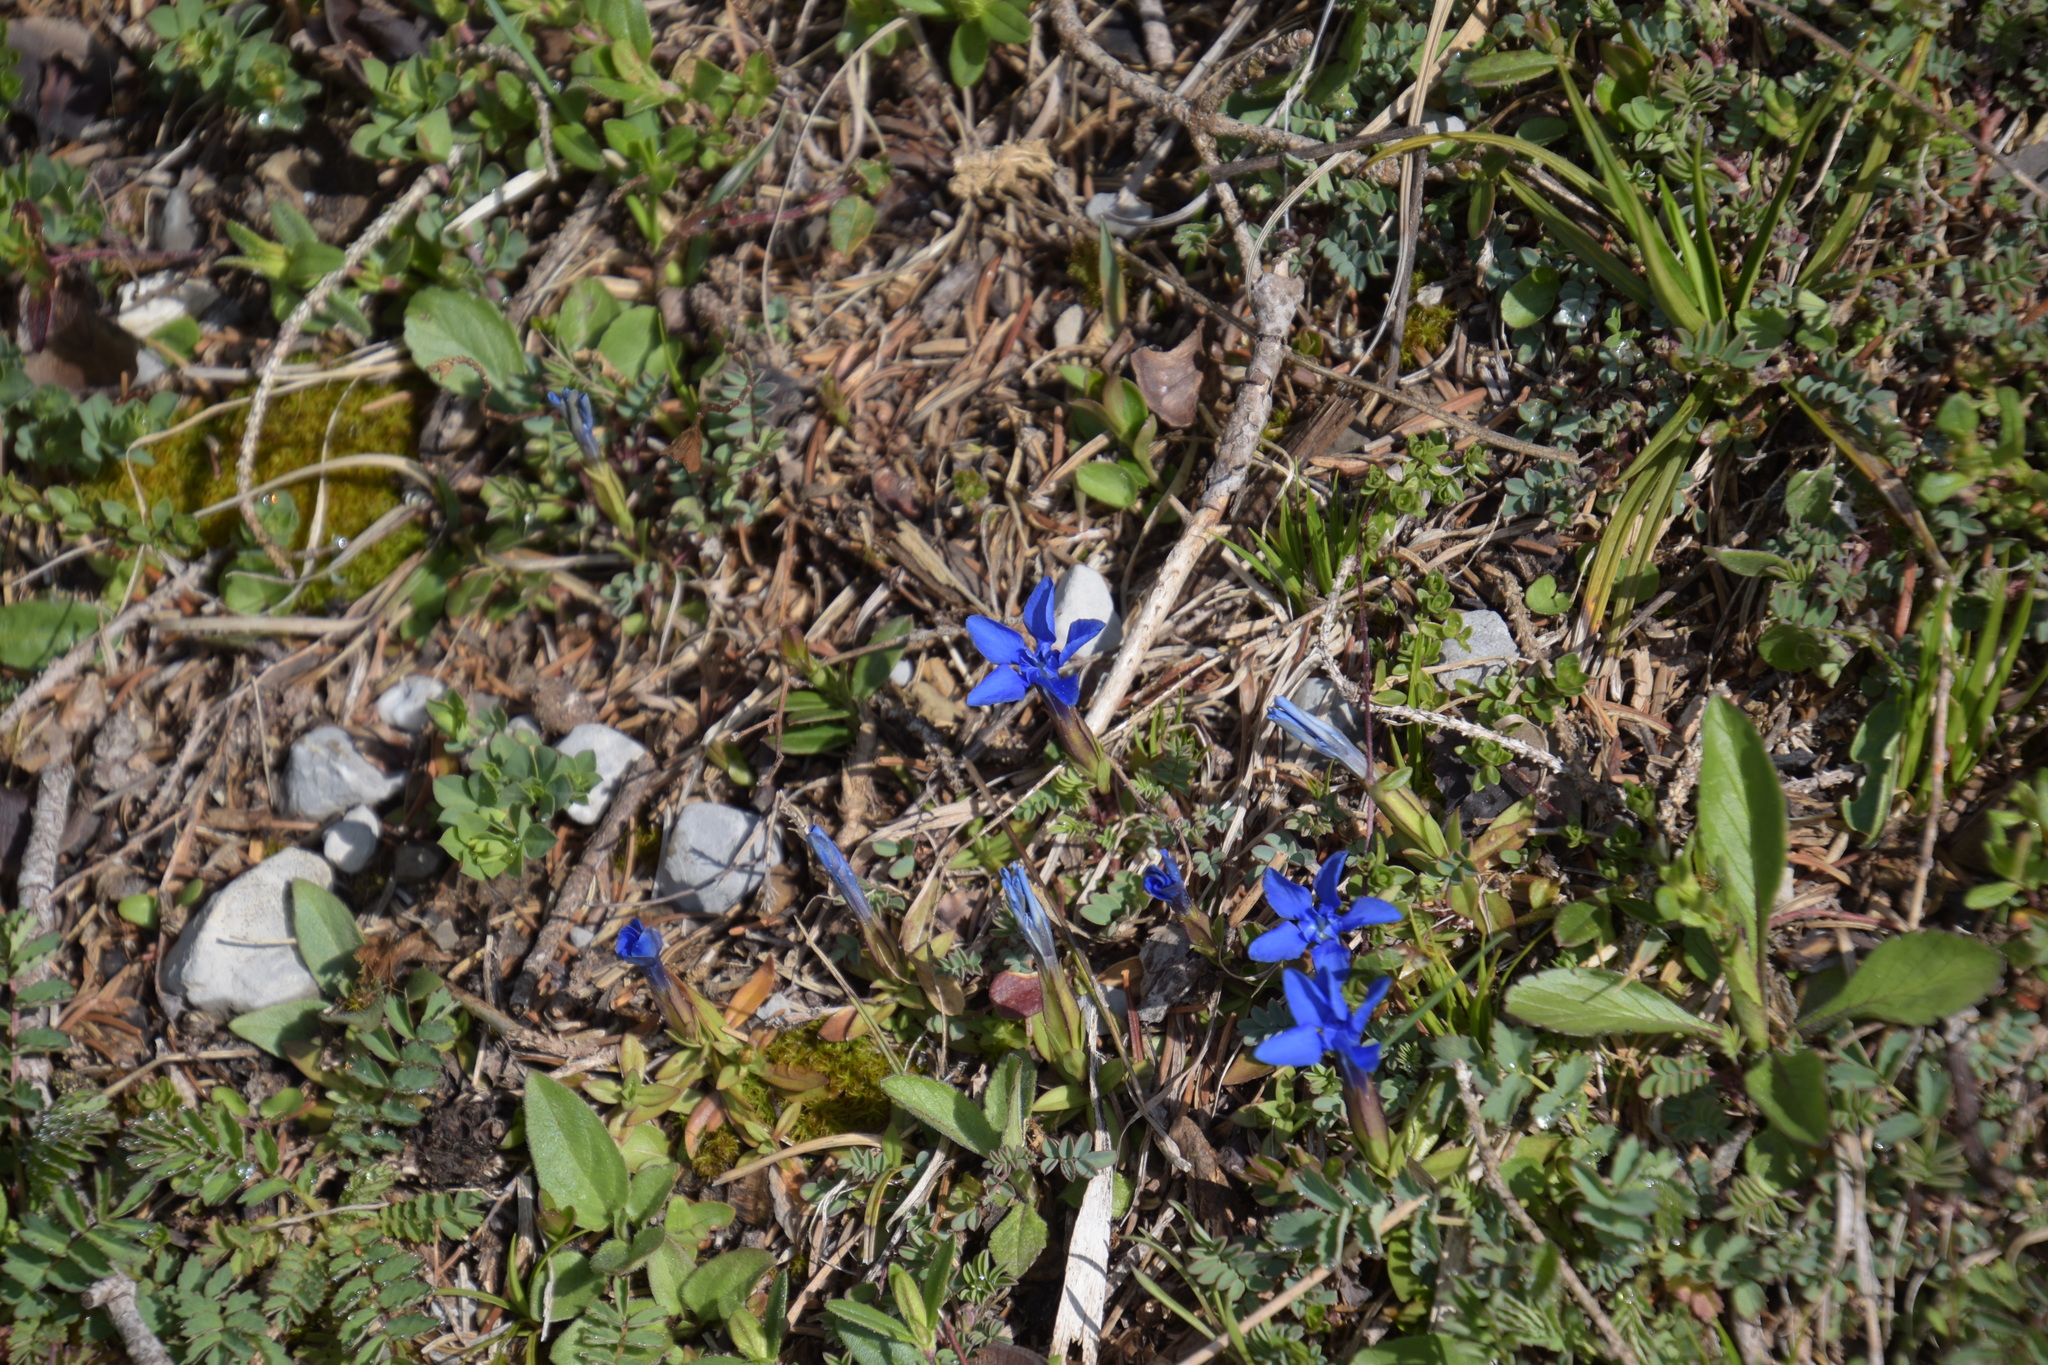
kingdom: Plantae
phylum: Tracheophyta
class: Magnoliopsida
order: Gentianales
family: Gentianaceae
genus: Gentiana
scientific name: Gentiana verna
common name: Spring gentian
